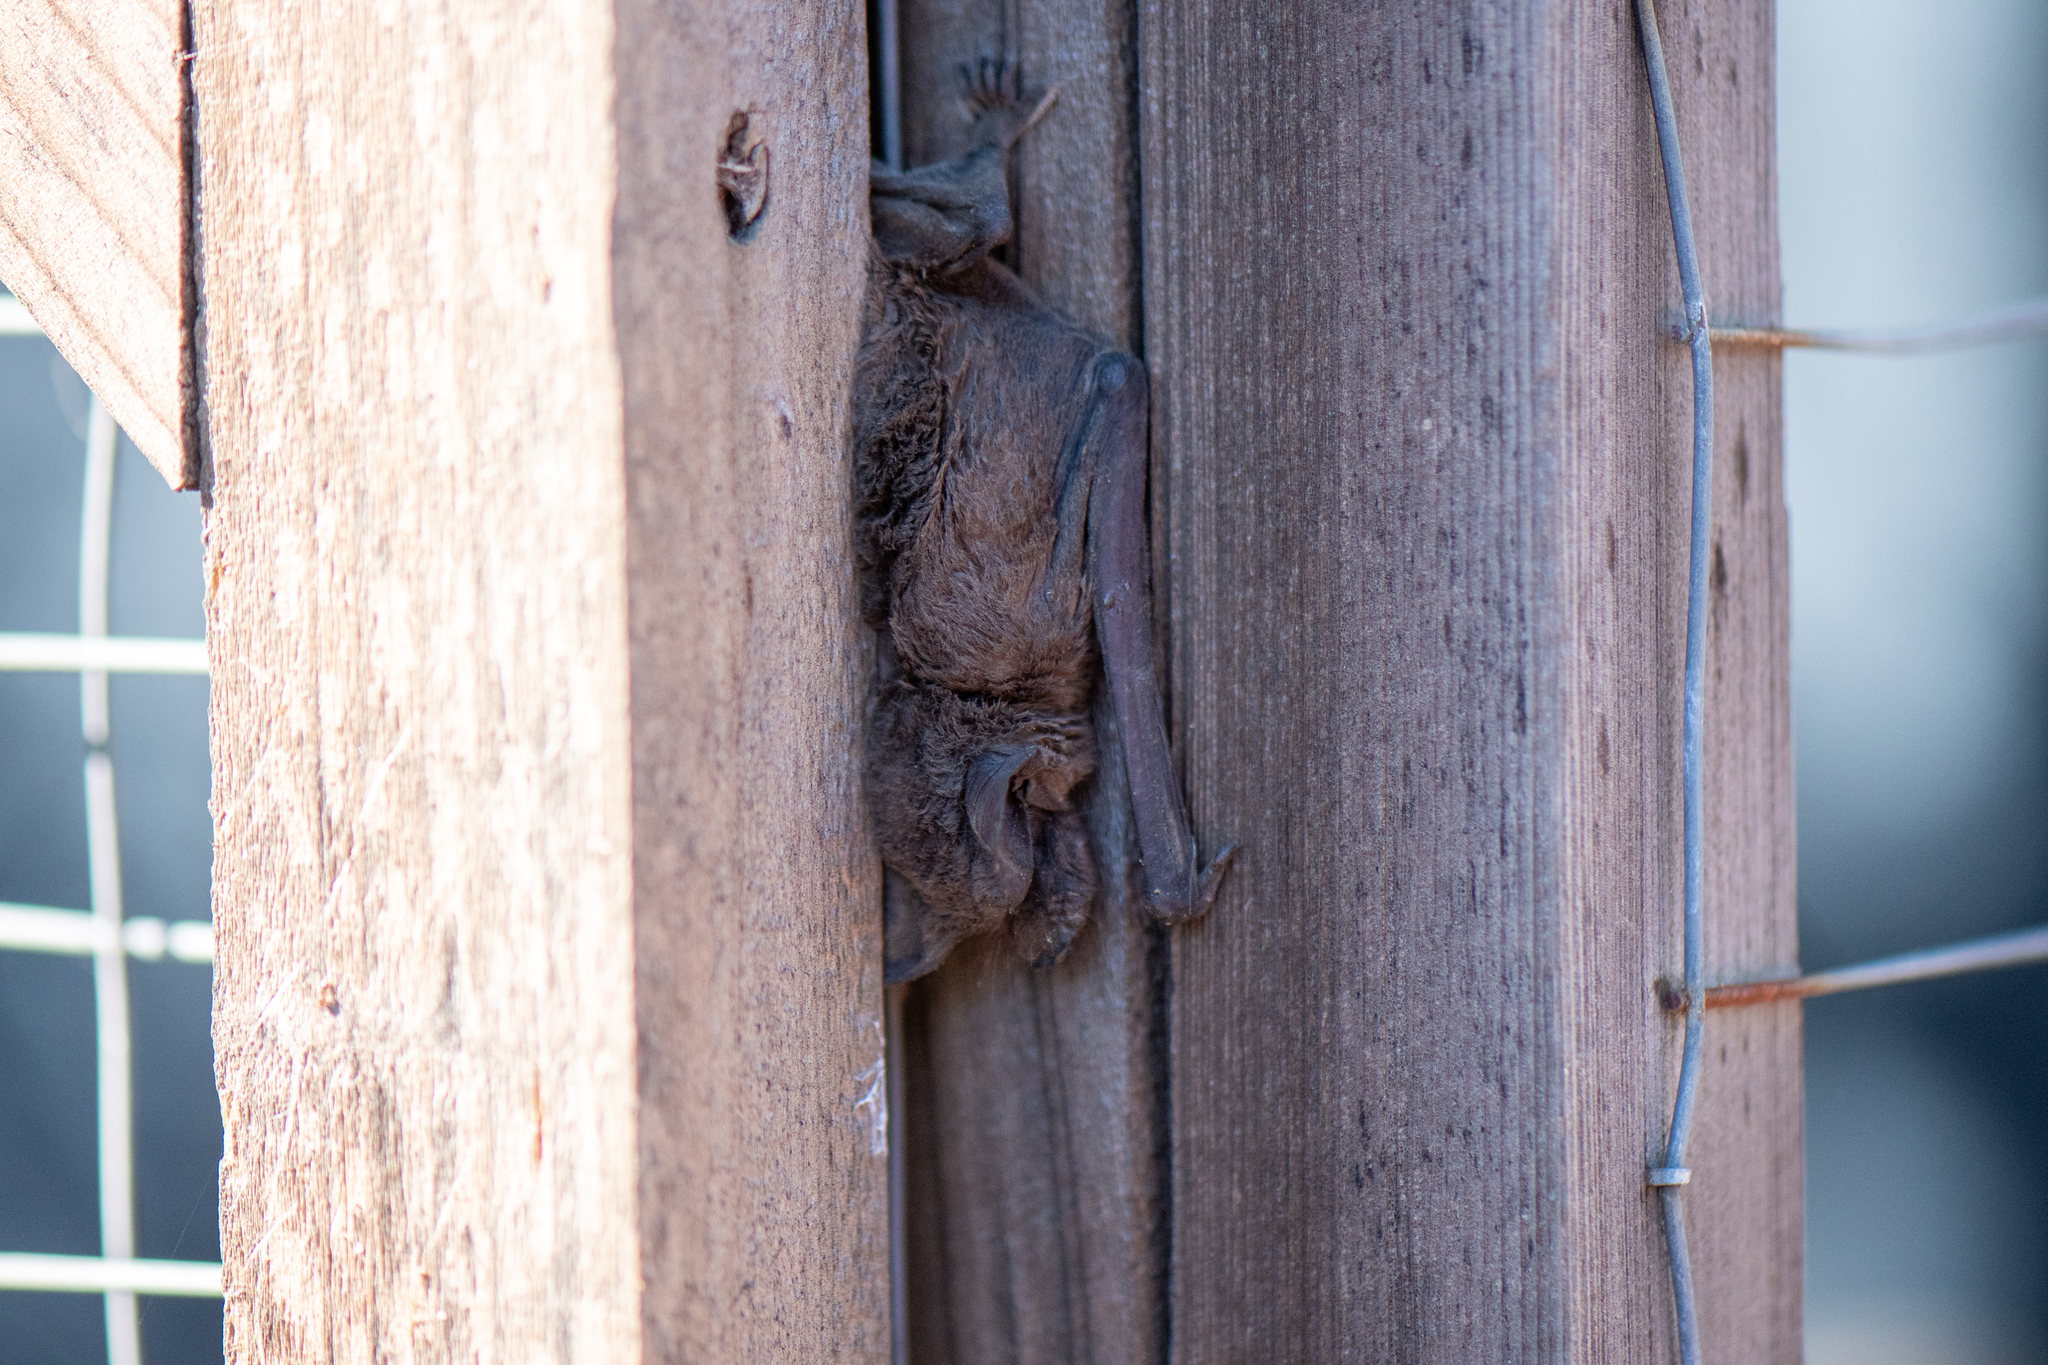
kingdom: Animalia
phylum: Chordata
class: Mammalia
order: Chiroptera
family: Molossidae
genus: Tadarida
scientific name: Tadarida brasiliensis
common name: Mexican free-tailed bat
